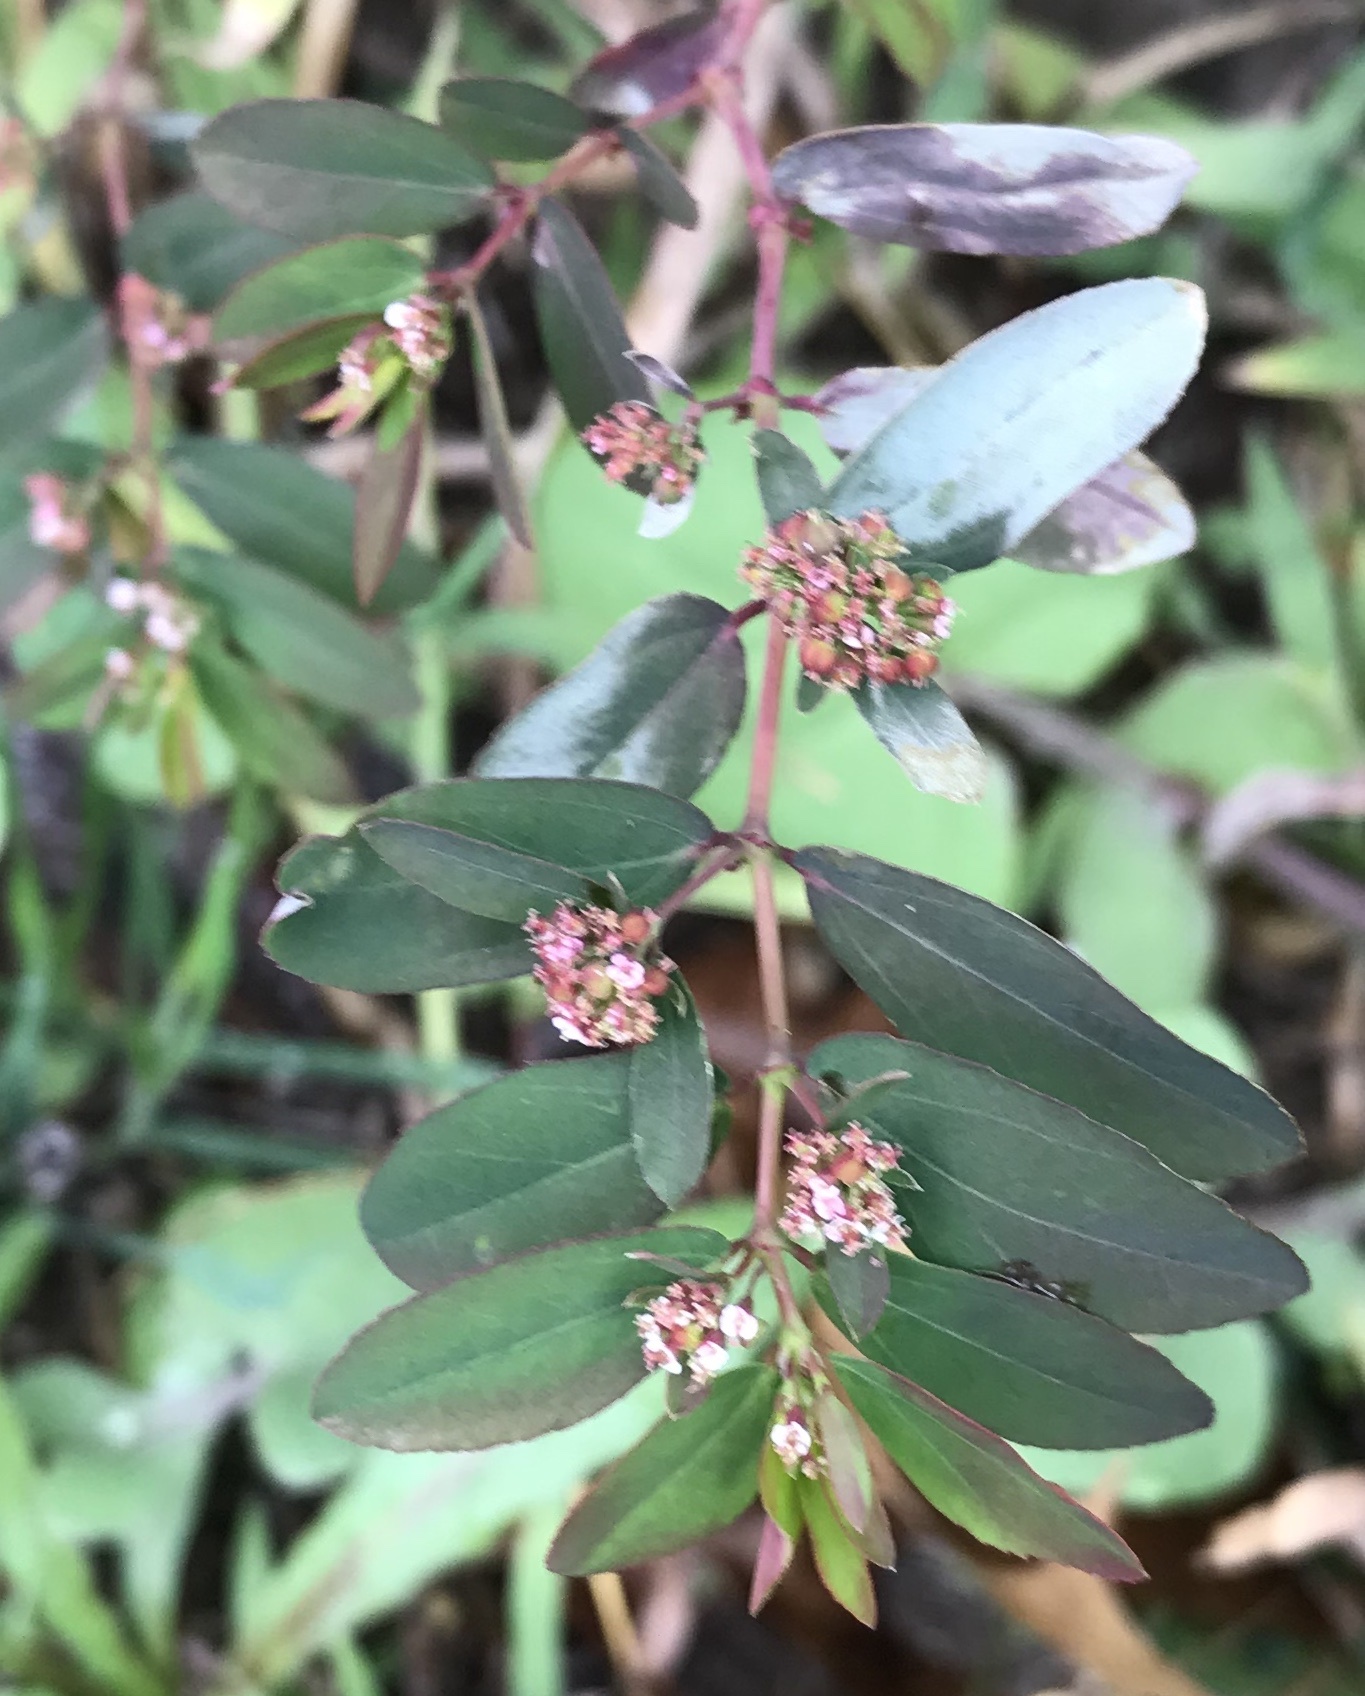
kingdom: Plantae
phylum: Tracheophyta
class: Magnoliopsida
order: Malpighiales
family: Euphorbiaceae
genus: Euphorbia
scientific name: Euphorbia hypericifolia
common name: Graceful sandmat
